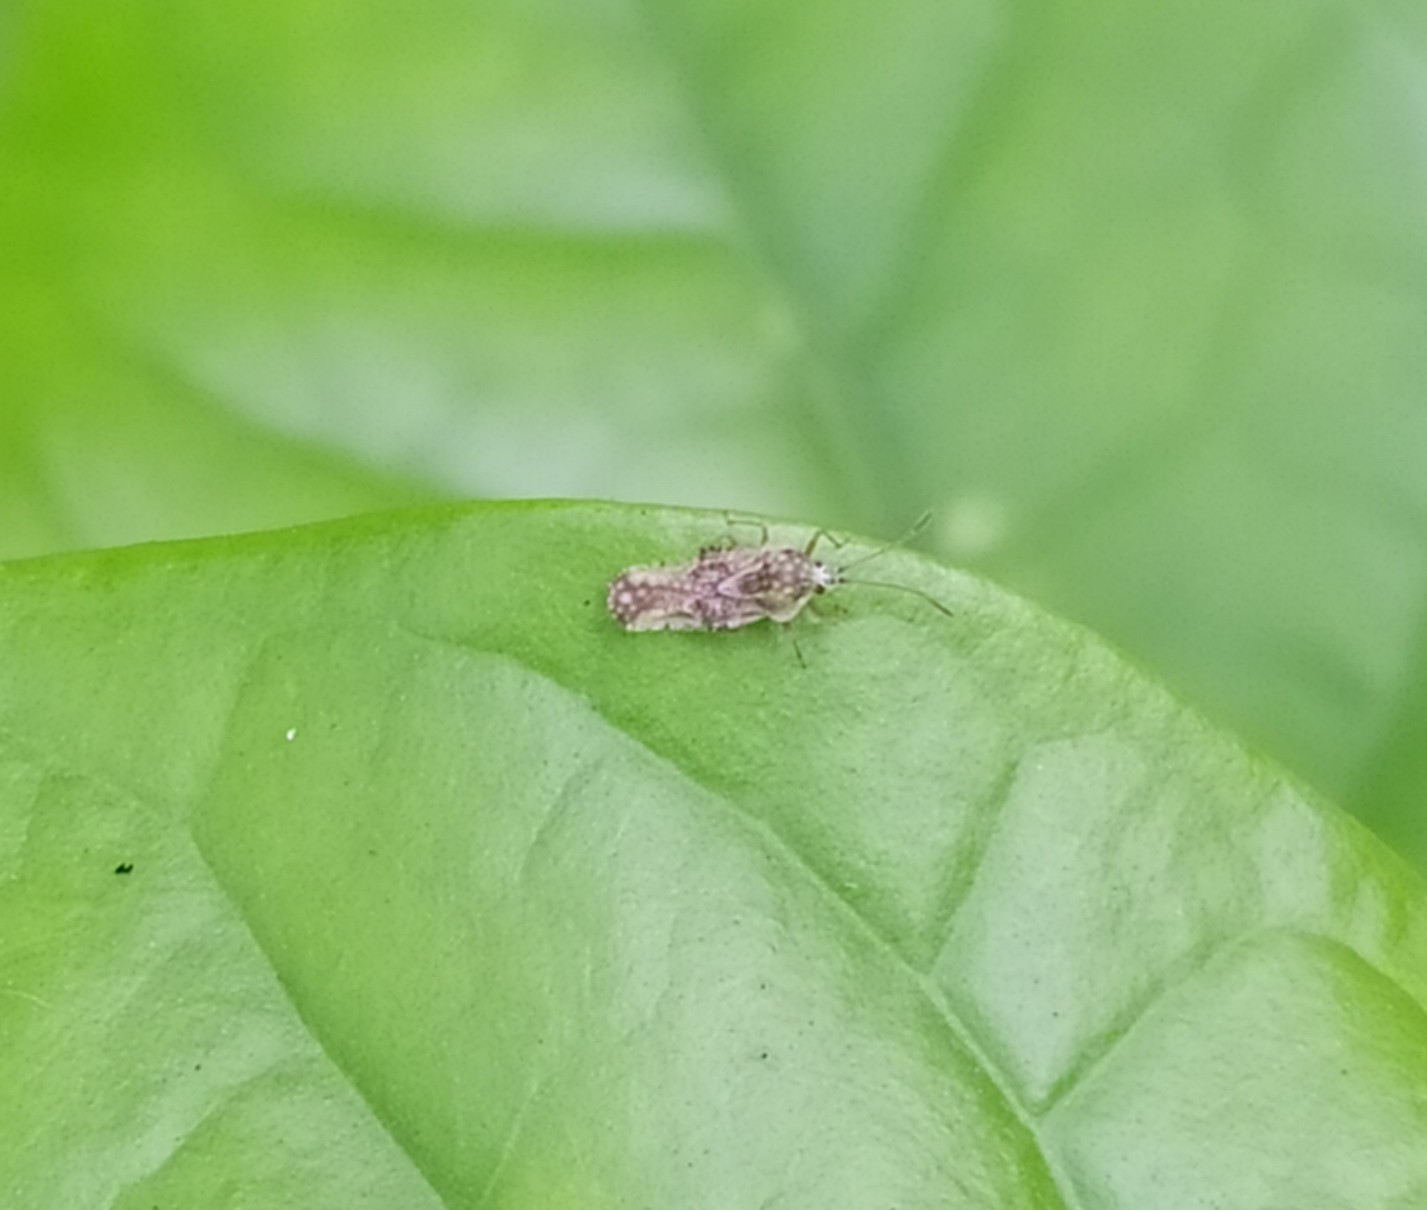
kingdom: Animalia
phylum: Arthropoda
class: Insecta
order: Hemiptera
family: Tingidae
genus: Corythauma
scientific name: Corythauma ayyari
